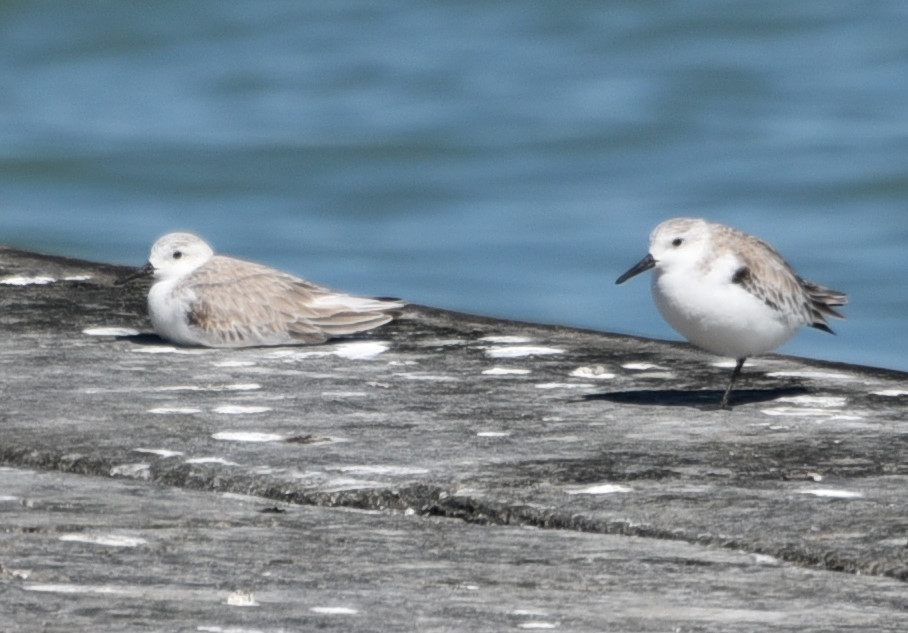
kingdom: Animalia
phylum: Chordata
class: Aves
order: Charadriiformes
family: Scolopacidae
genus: Calidris
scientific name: Calidris alba
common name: Sanderling
